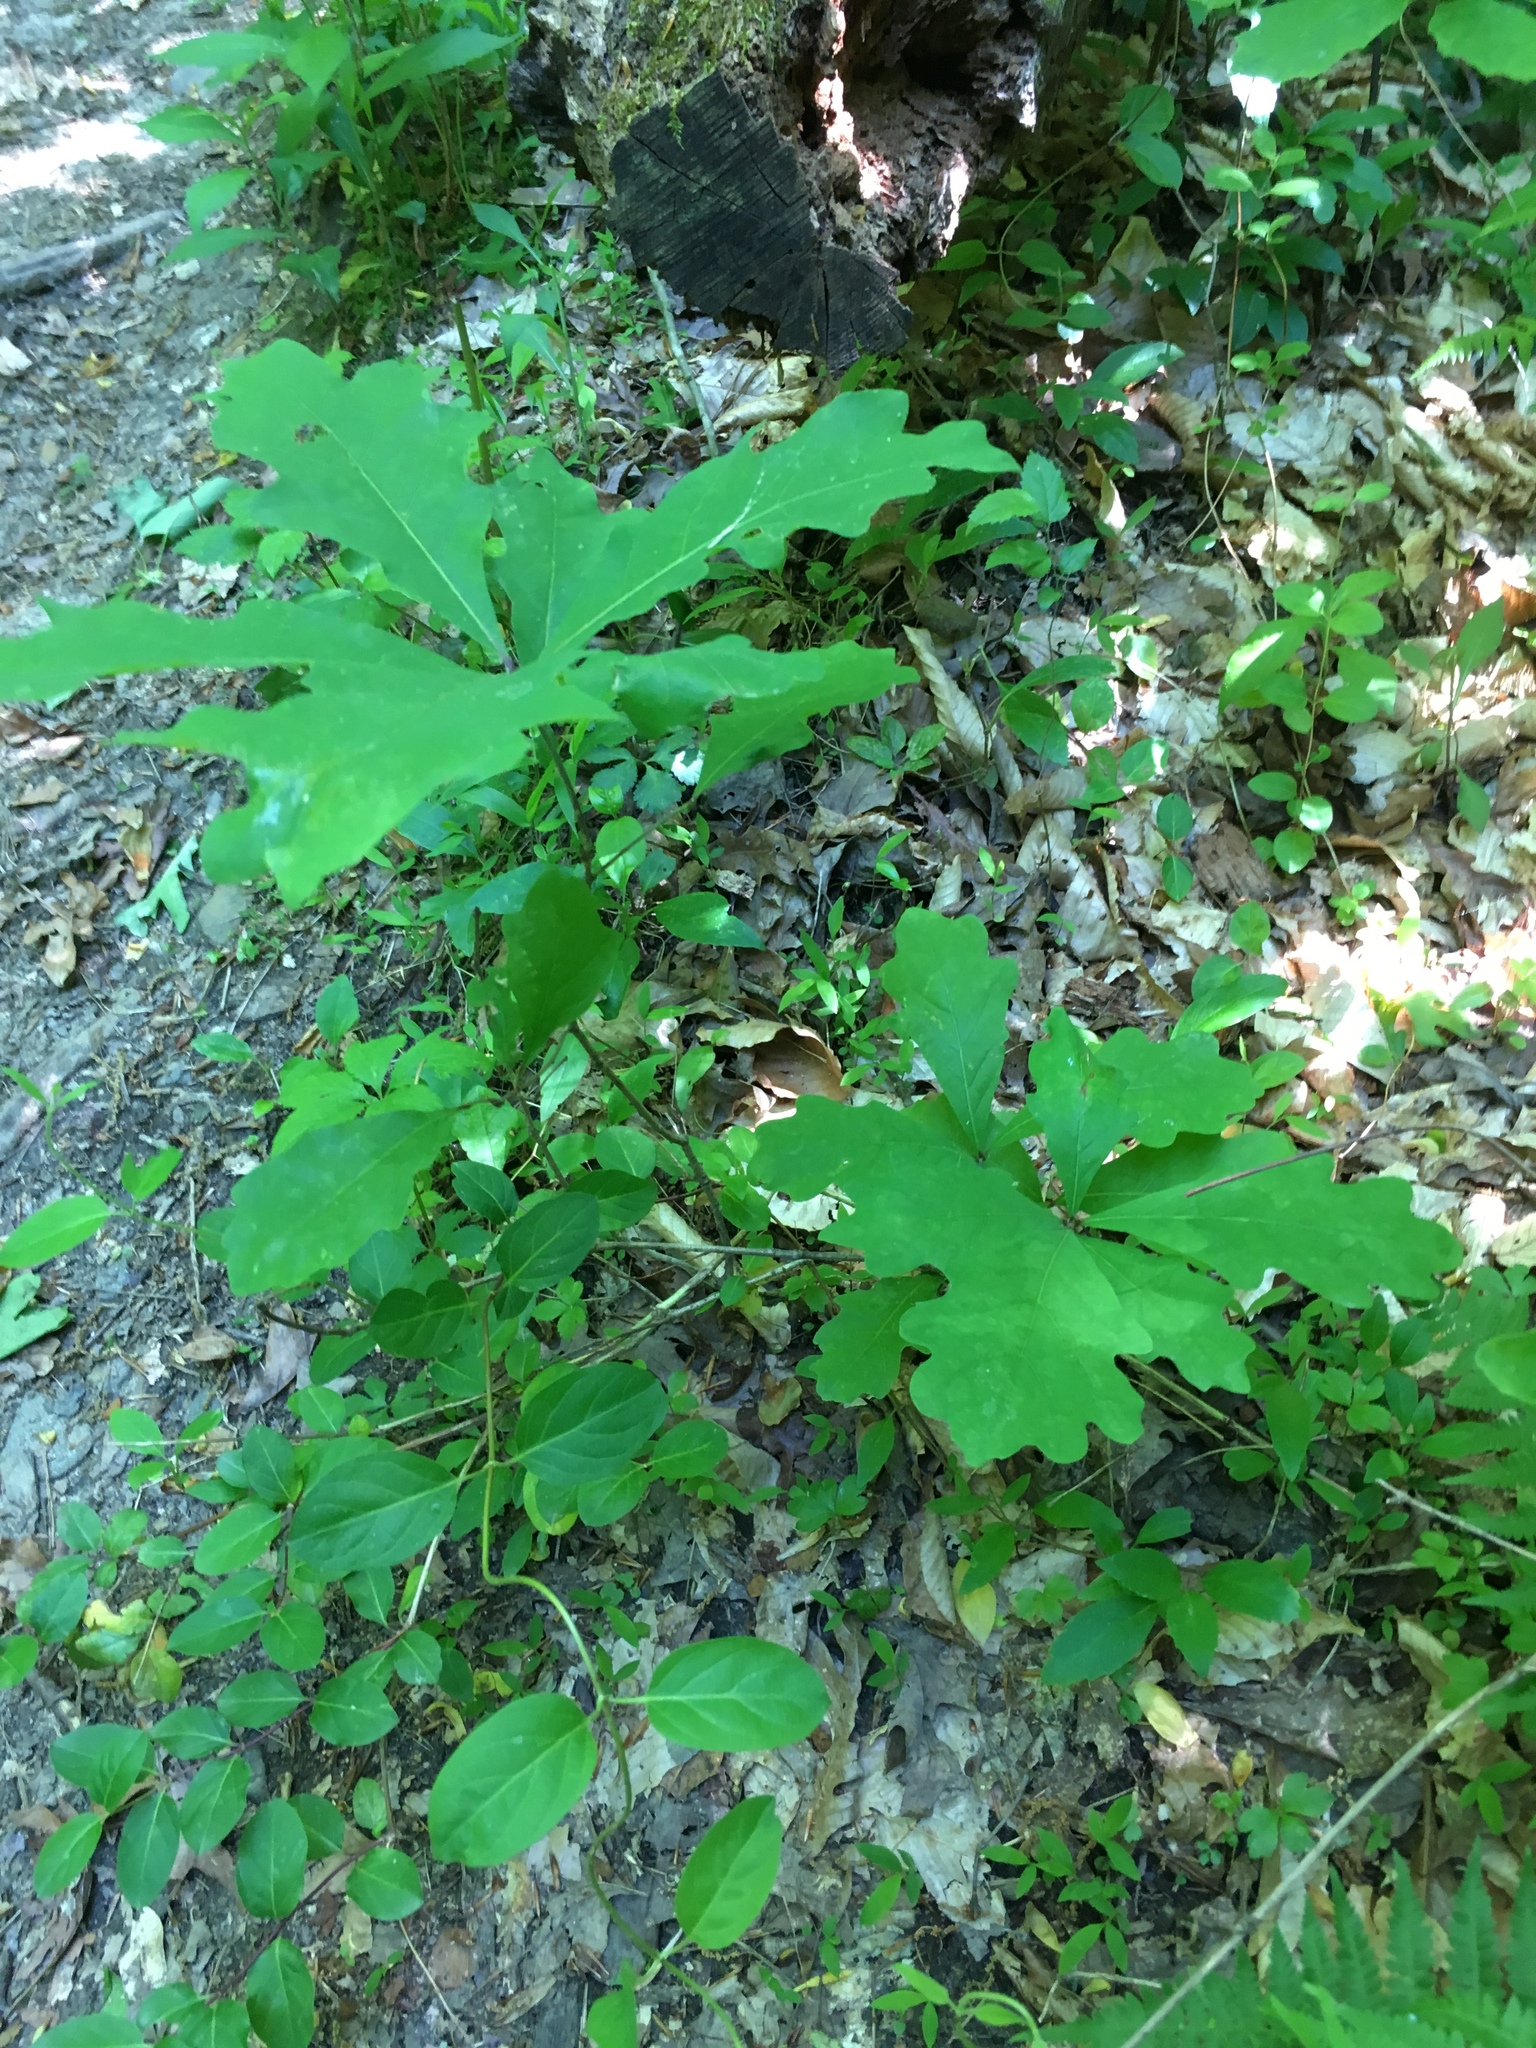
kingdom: Plantae
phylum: Tracheophyta
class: Magnoliopsida
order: Fagales
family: Fagaceae
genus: Quercus
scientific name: Quercus alba
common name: White oak
